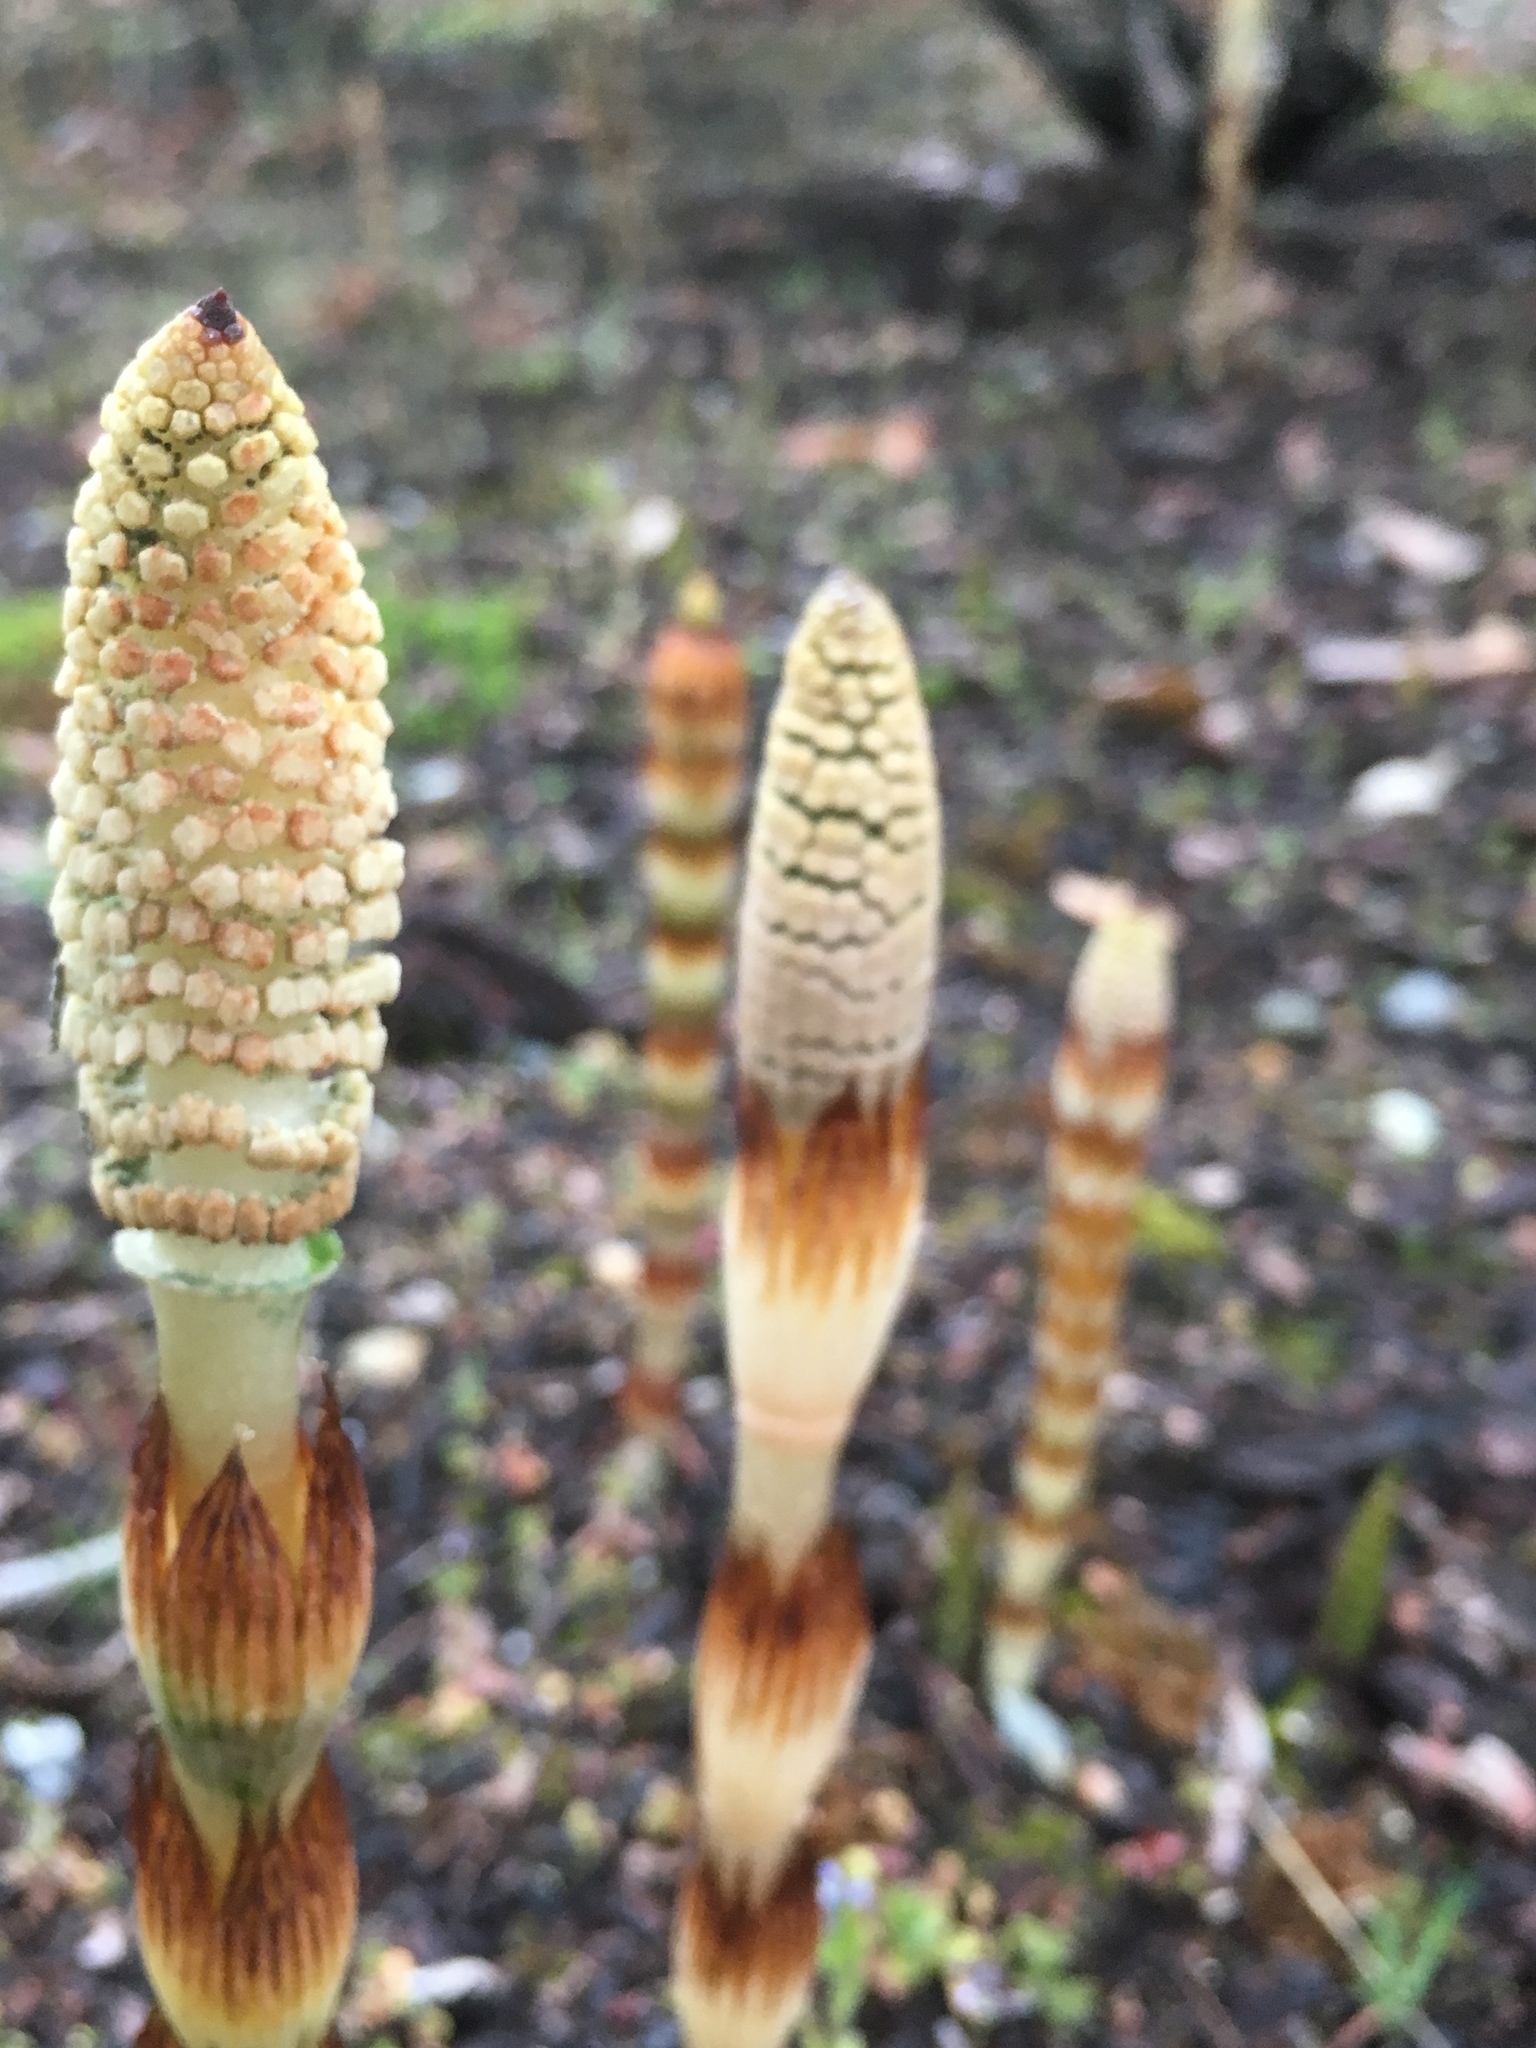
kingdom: Plantae
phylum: Tracheophyta
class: Polypodiopsida
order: Equisetales
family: Equisetaceae
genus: Equisetum
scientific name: Equisetum braunii
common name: Braun's horsetail
